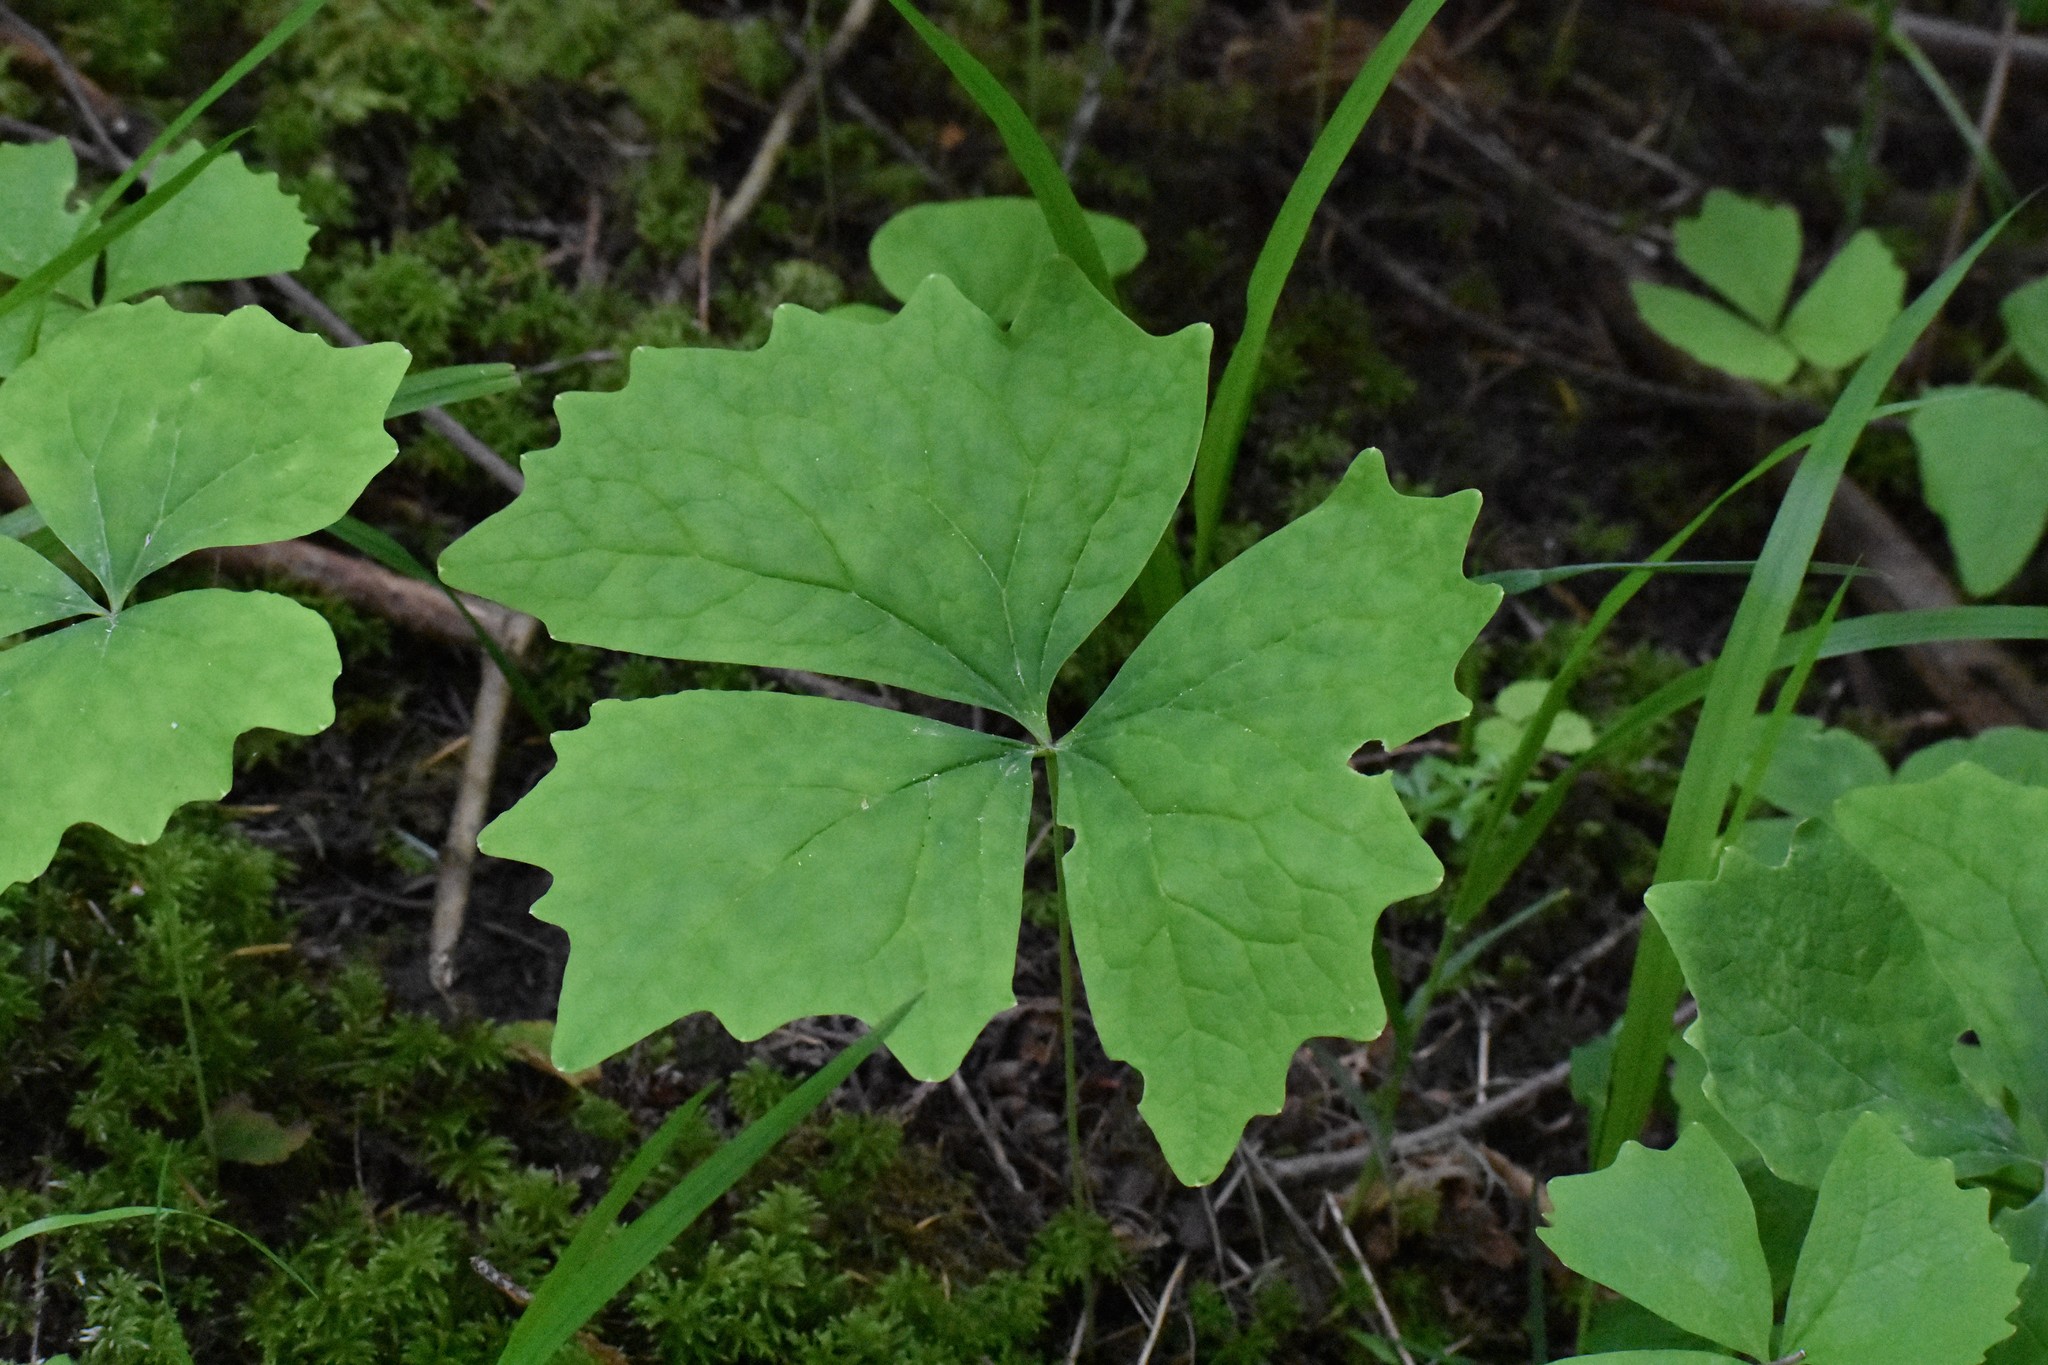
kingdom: Plantae
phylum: Tracheophyta
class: Magnoliopsida
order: Ranunculales
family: Berberidaceae
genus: Achlys
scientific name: Achlys triphylla
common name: Vanilla-leaf
